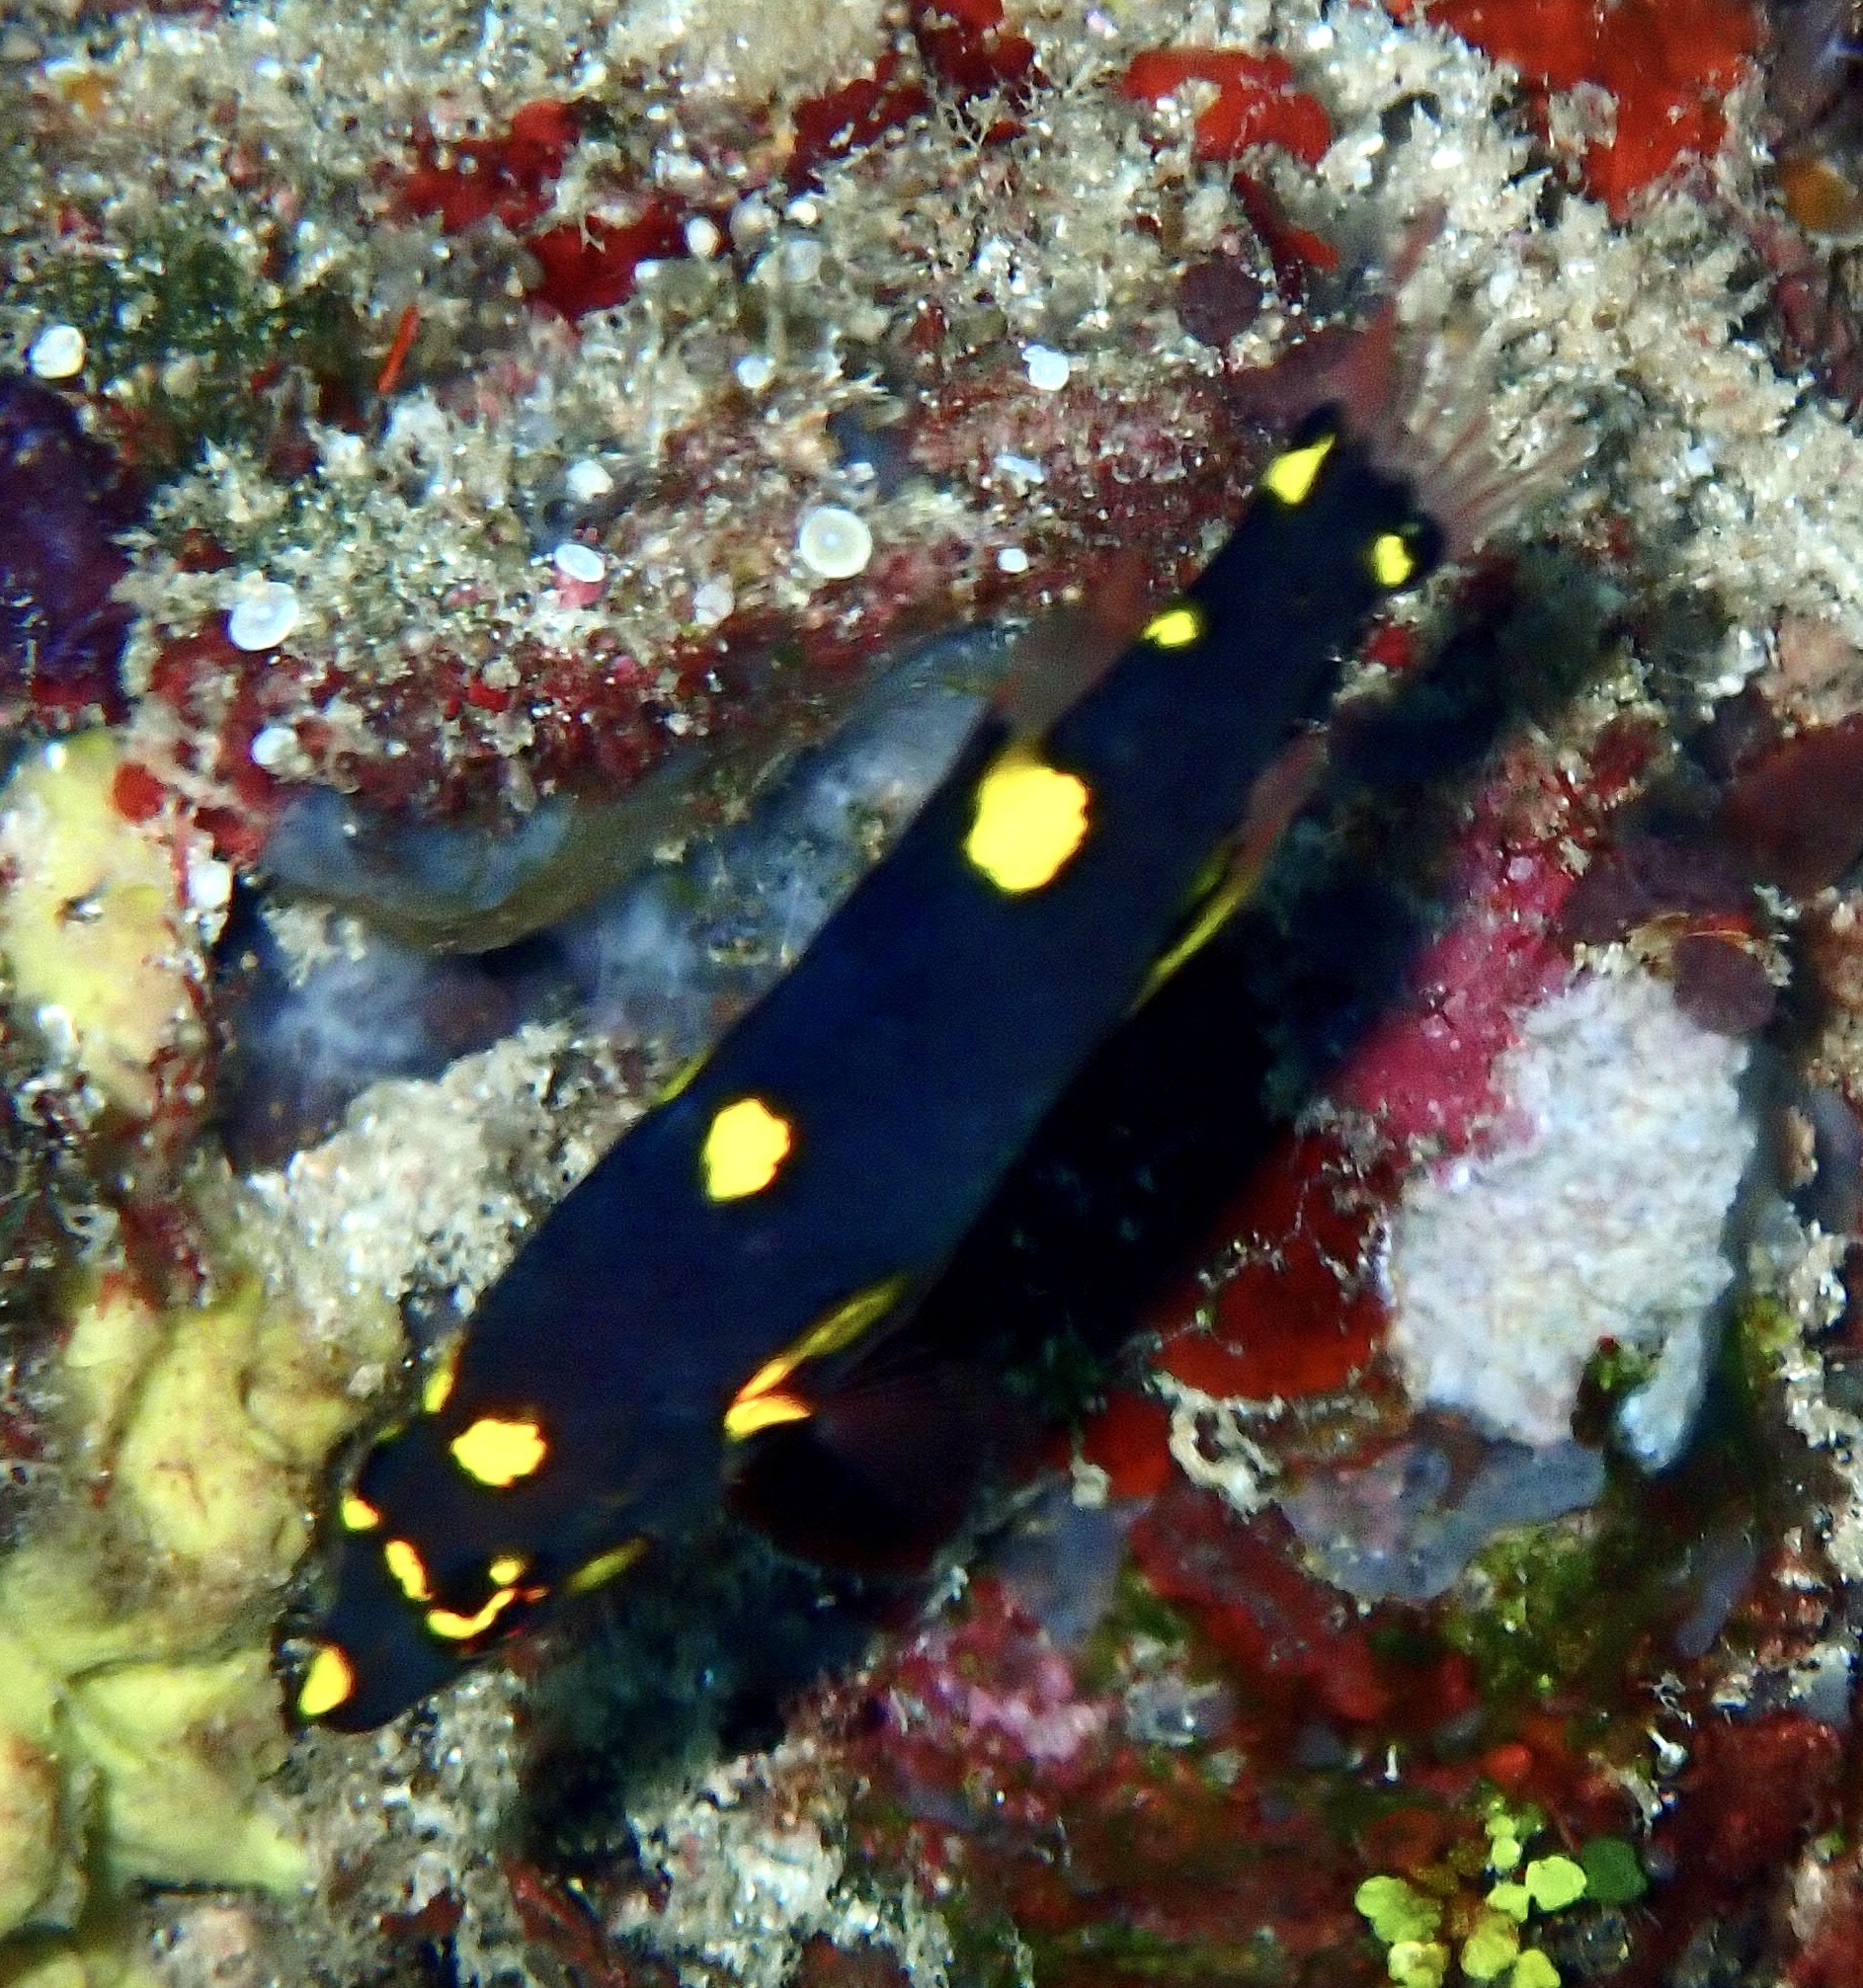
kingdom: Animalia
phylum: Chordata
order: Perciformes
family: Labridae
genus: Bodianus
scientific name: Bodianus mesothorax
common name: Coral hogfish
